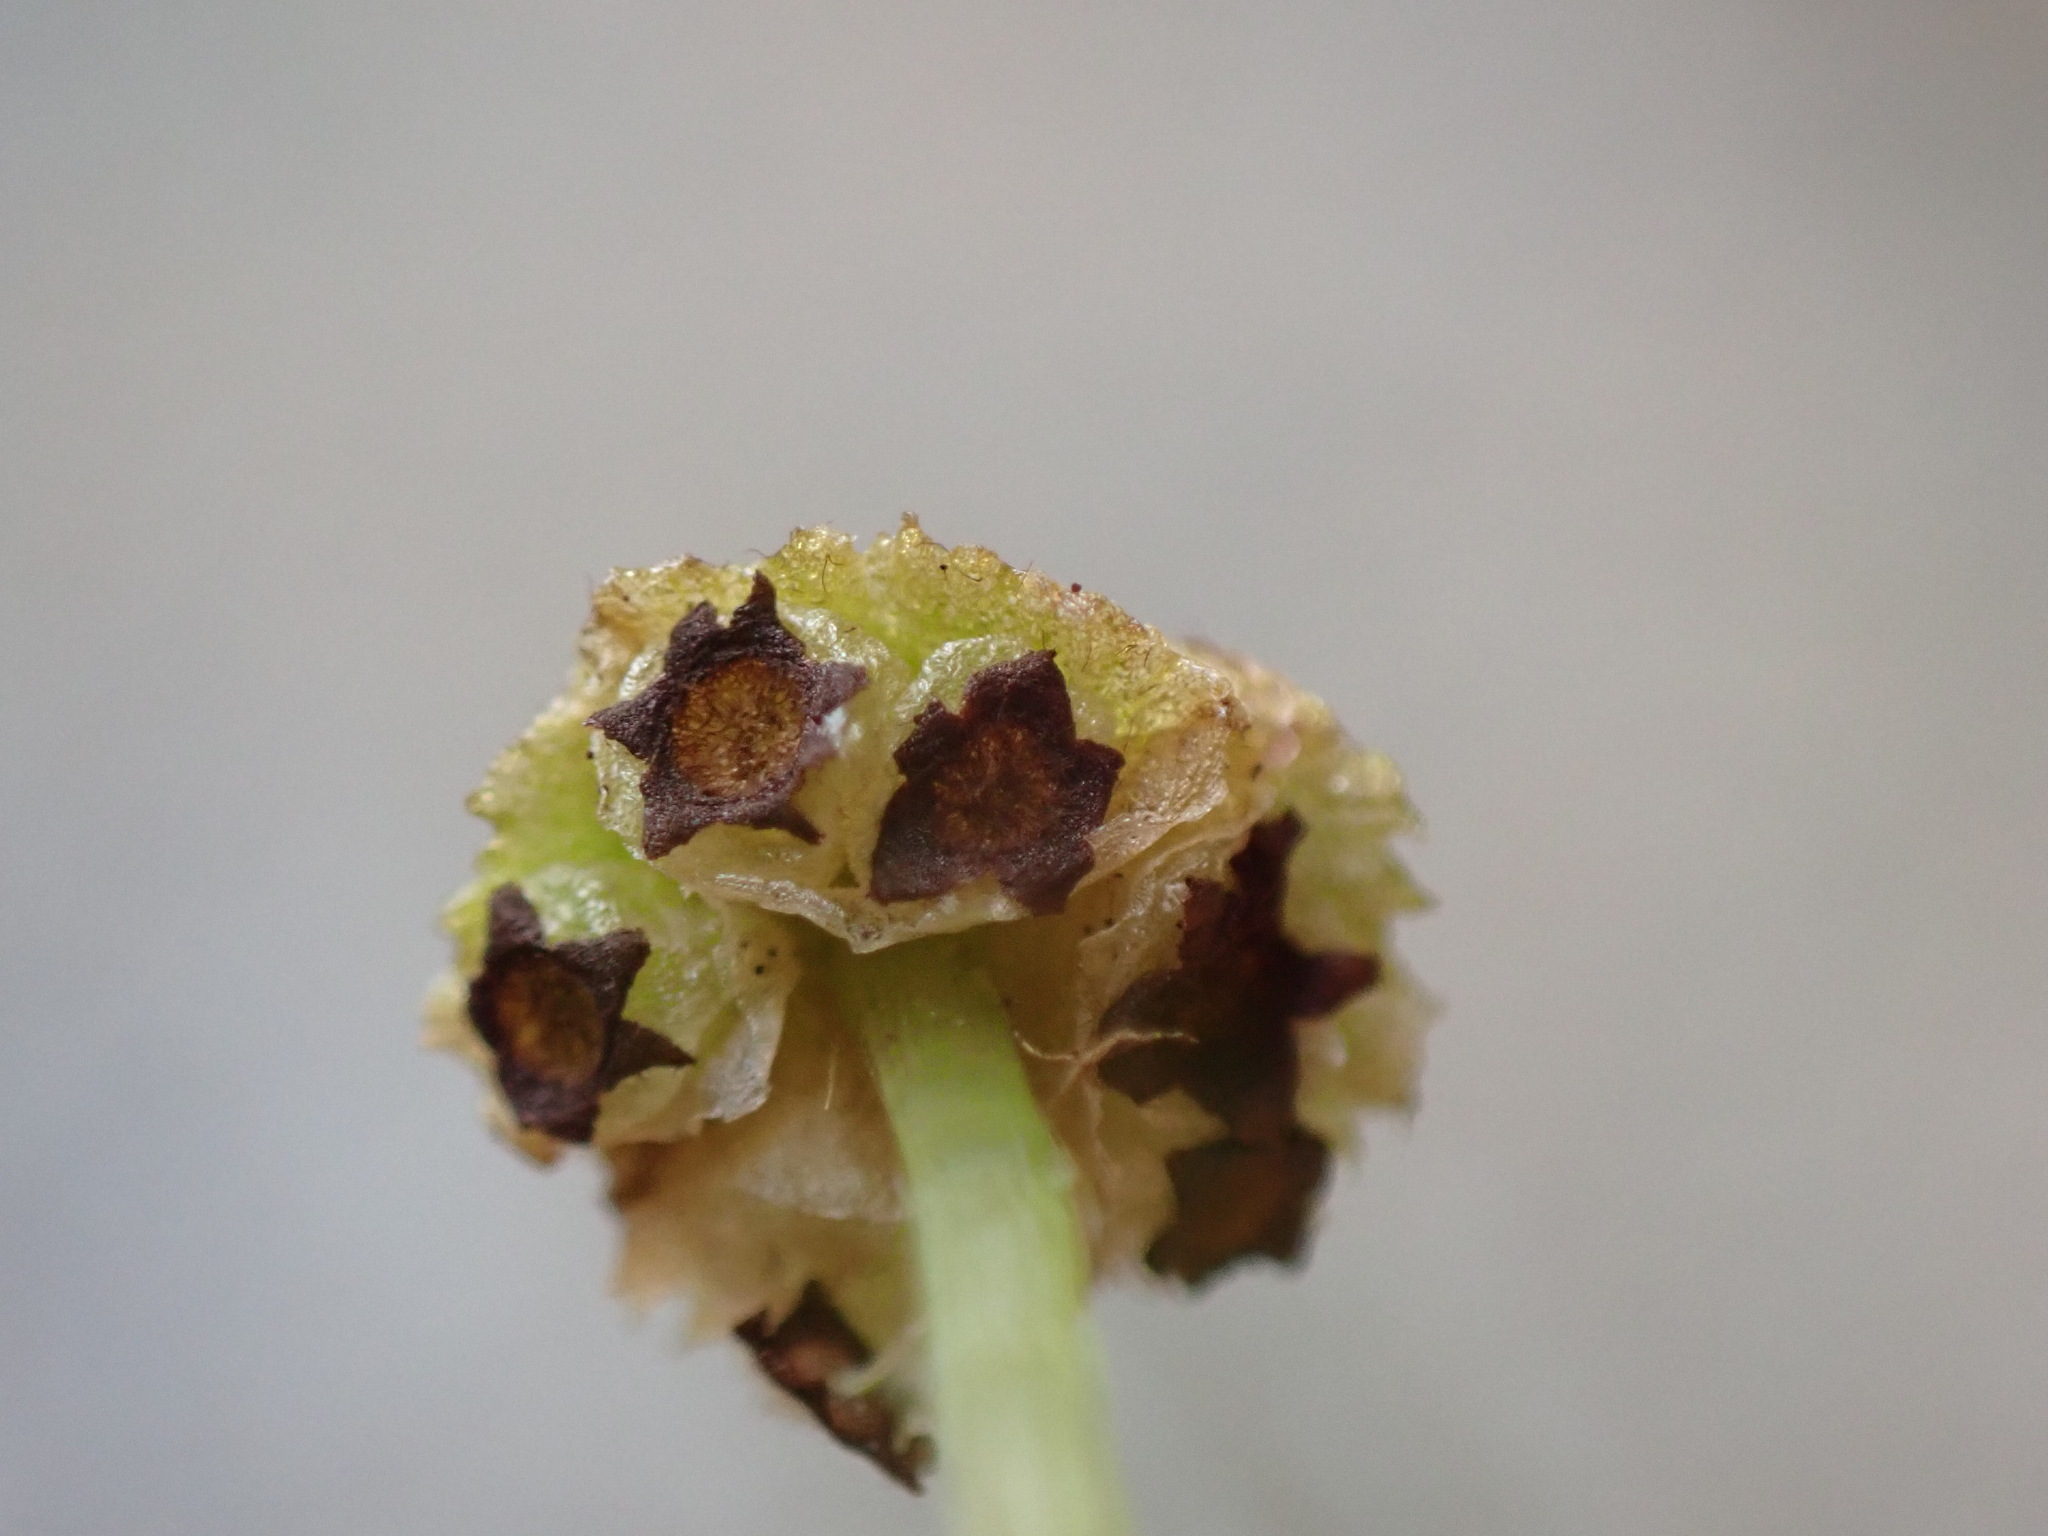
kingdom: Plantae
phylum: Marchantiophyta
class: Marchantiopsida
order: Marchantiales
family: Marchantiaceae
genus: Marchantia
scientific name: Marchantia quadrata
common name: Narrow mushroom-headed liverwort
